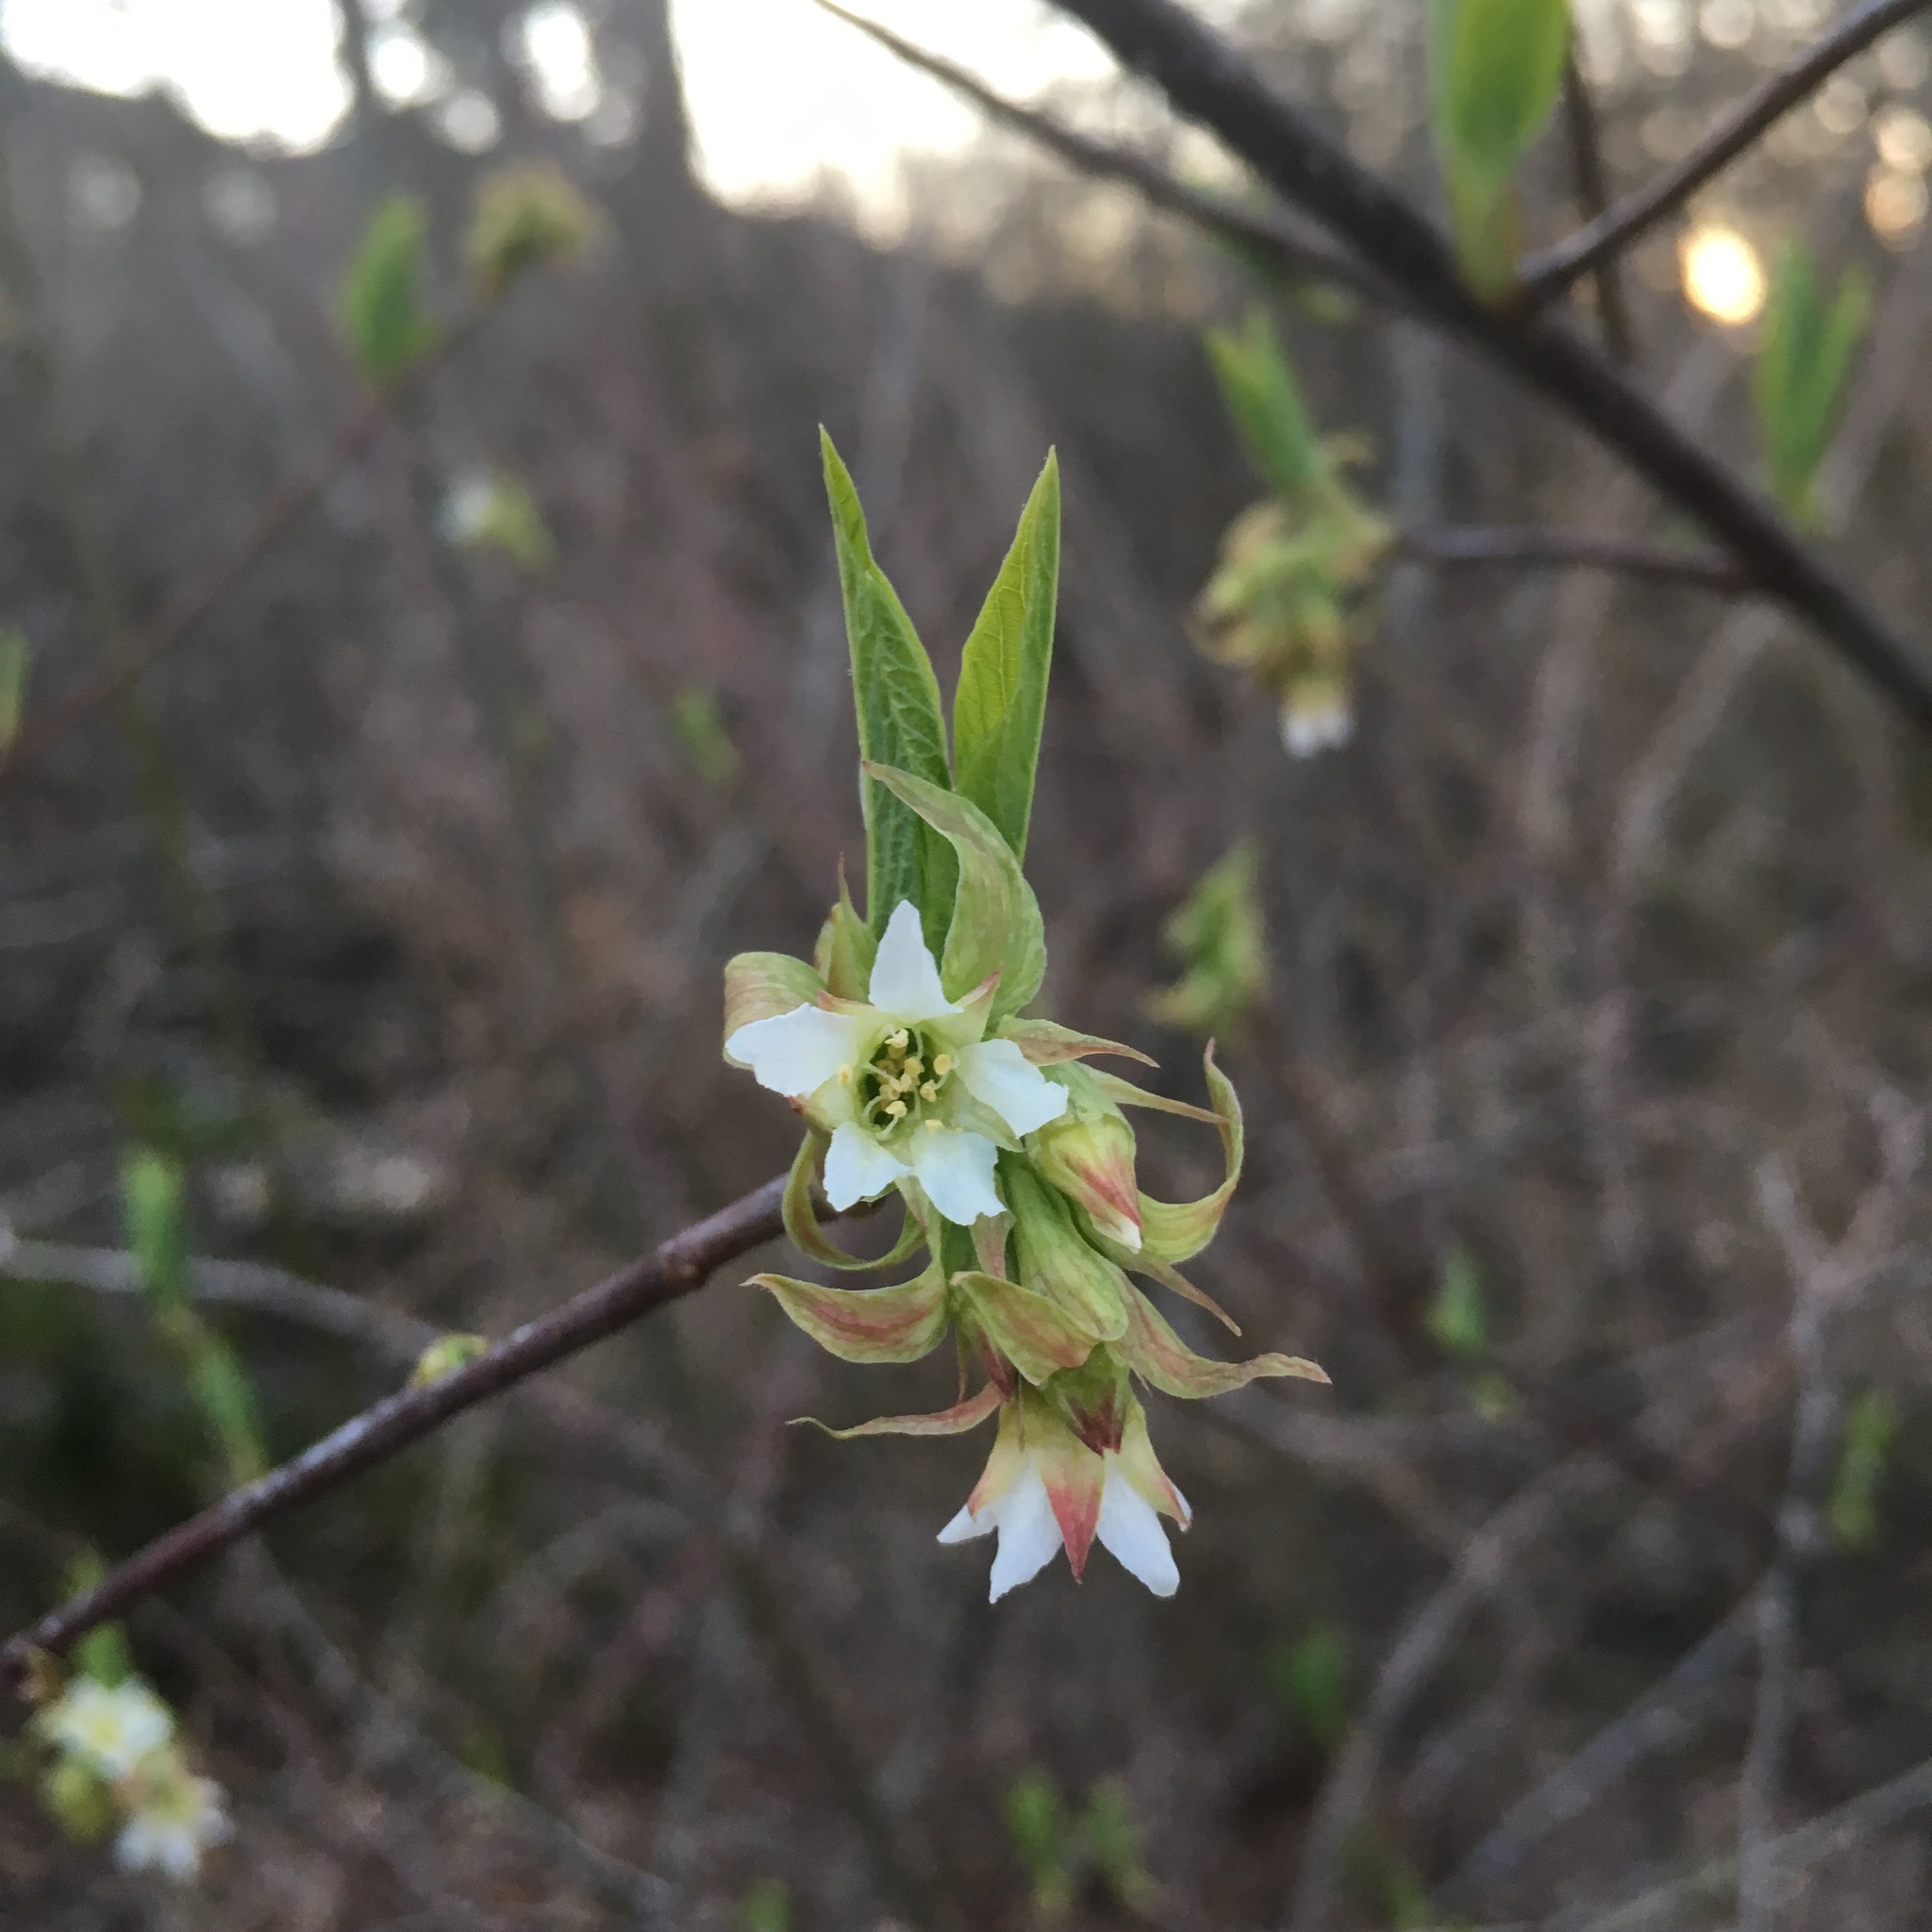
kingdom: Plantae
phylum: Tracheophyta
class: Magnoliopsida
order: Rosales
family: Rosaceae
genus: Oemleria
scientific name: Oemleria cerasiformis
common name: Osoberry
